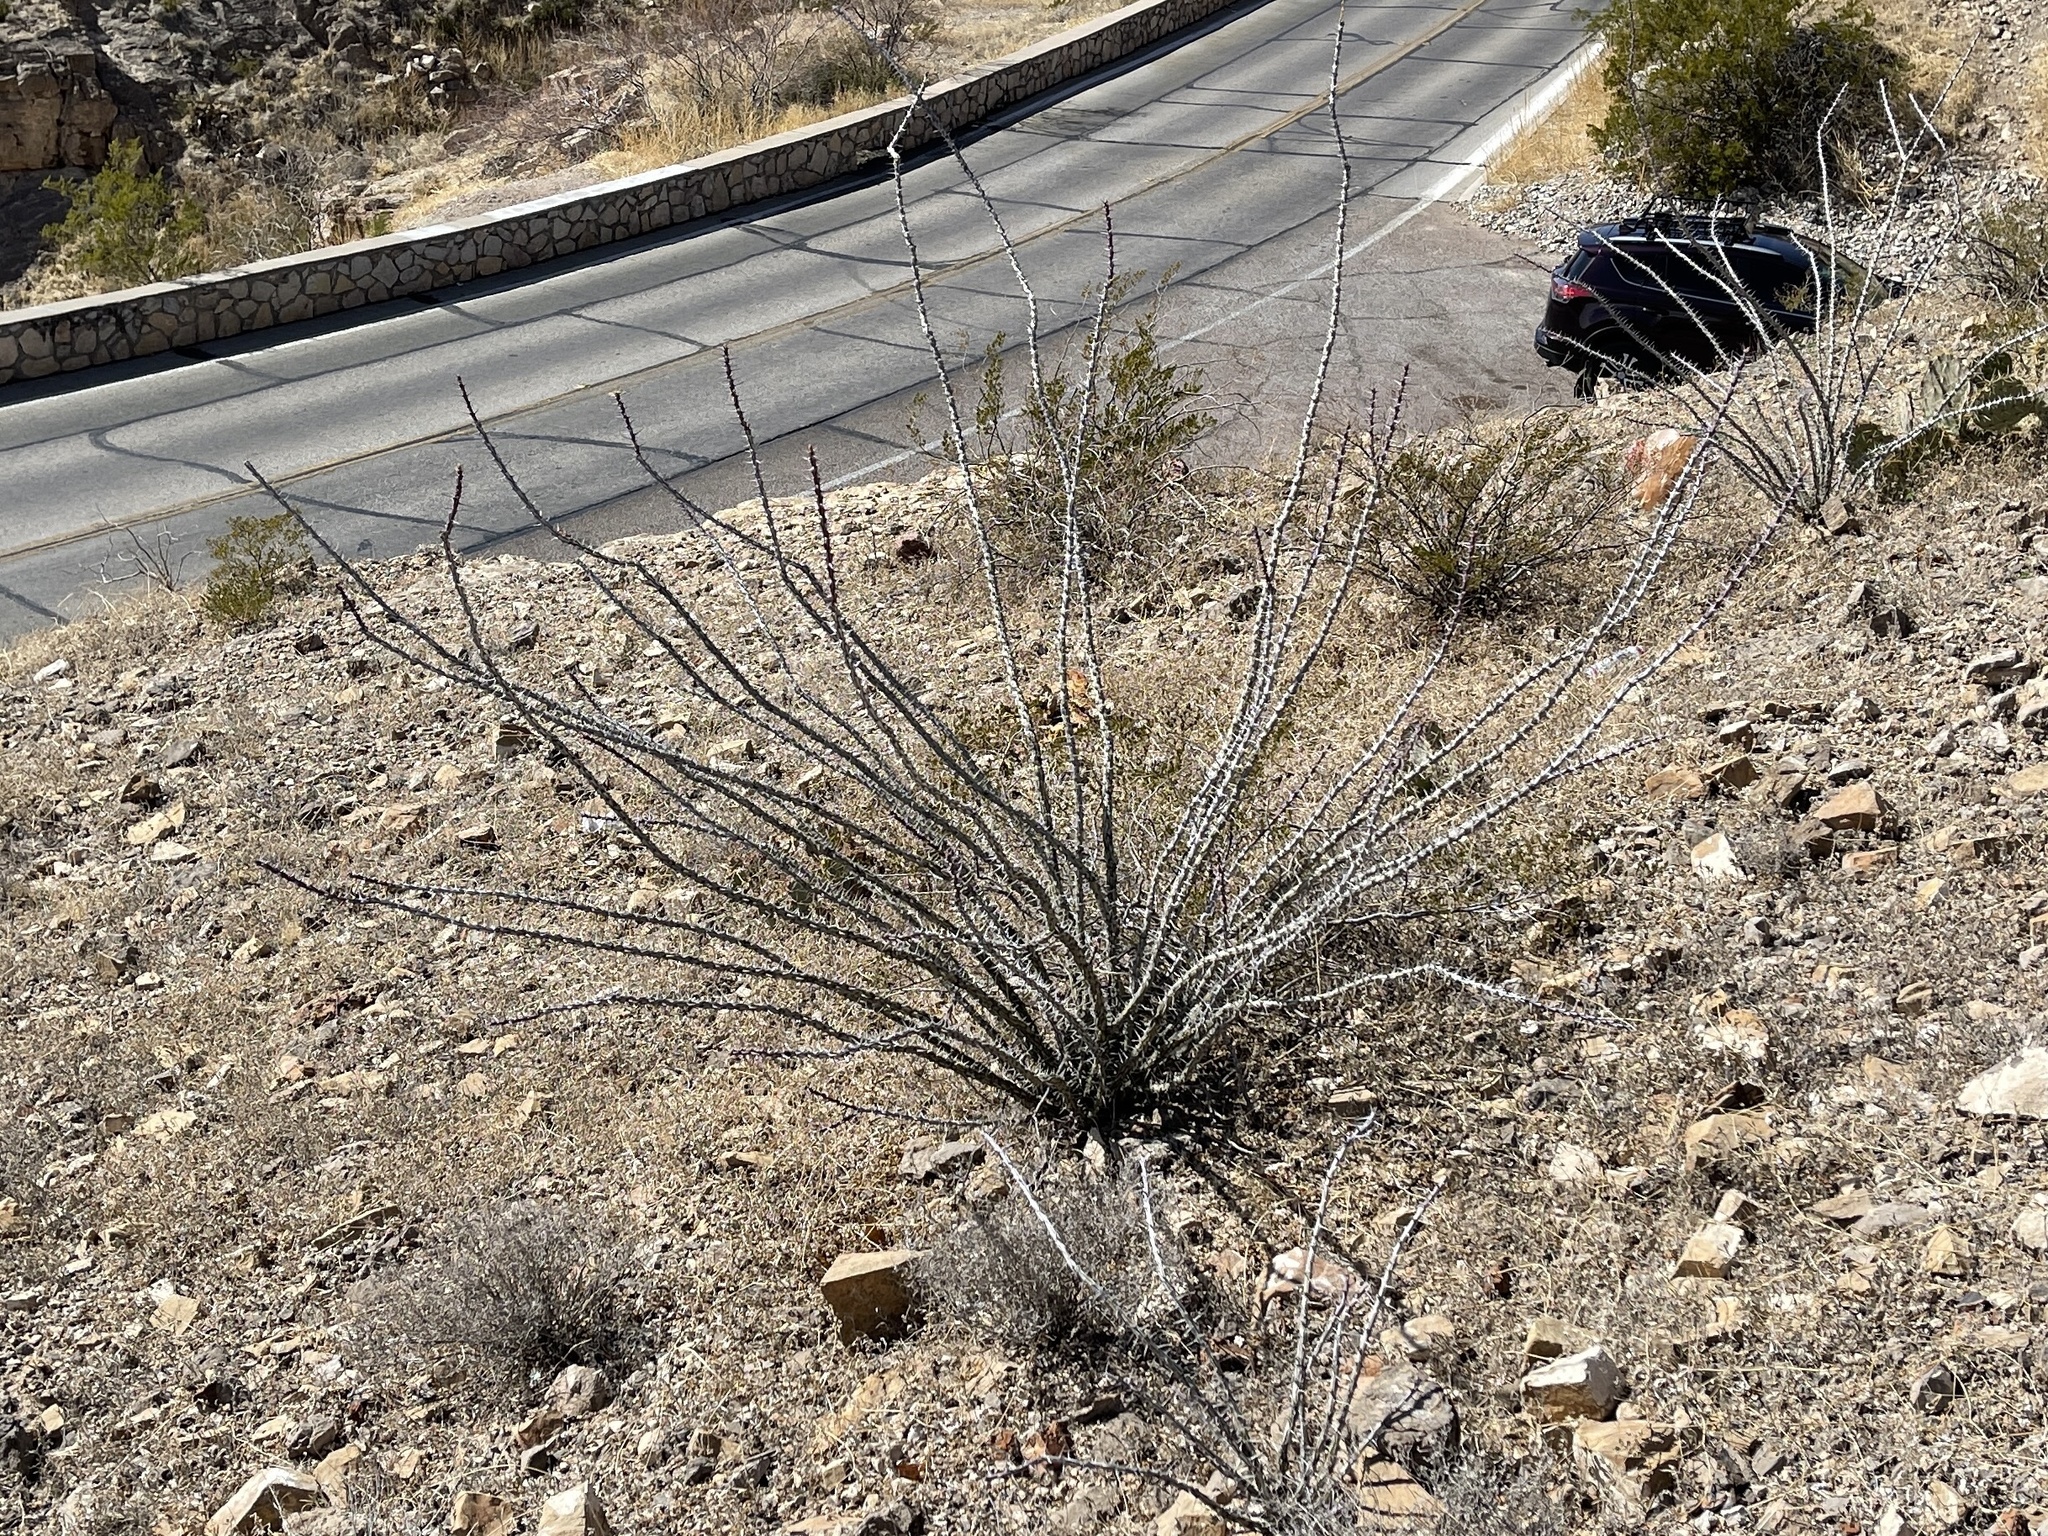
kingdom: Plantae
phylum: Tracheophyta
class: Magnoliopsida
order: Ericales
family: Fouquieriaceae
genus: Fouquieria
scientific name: Fouquieria splendens
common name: Vine-cactus
